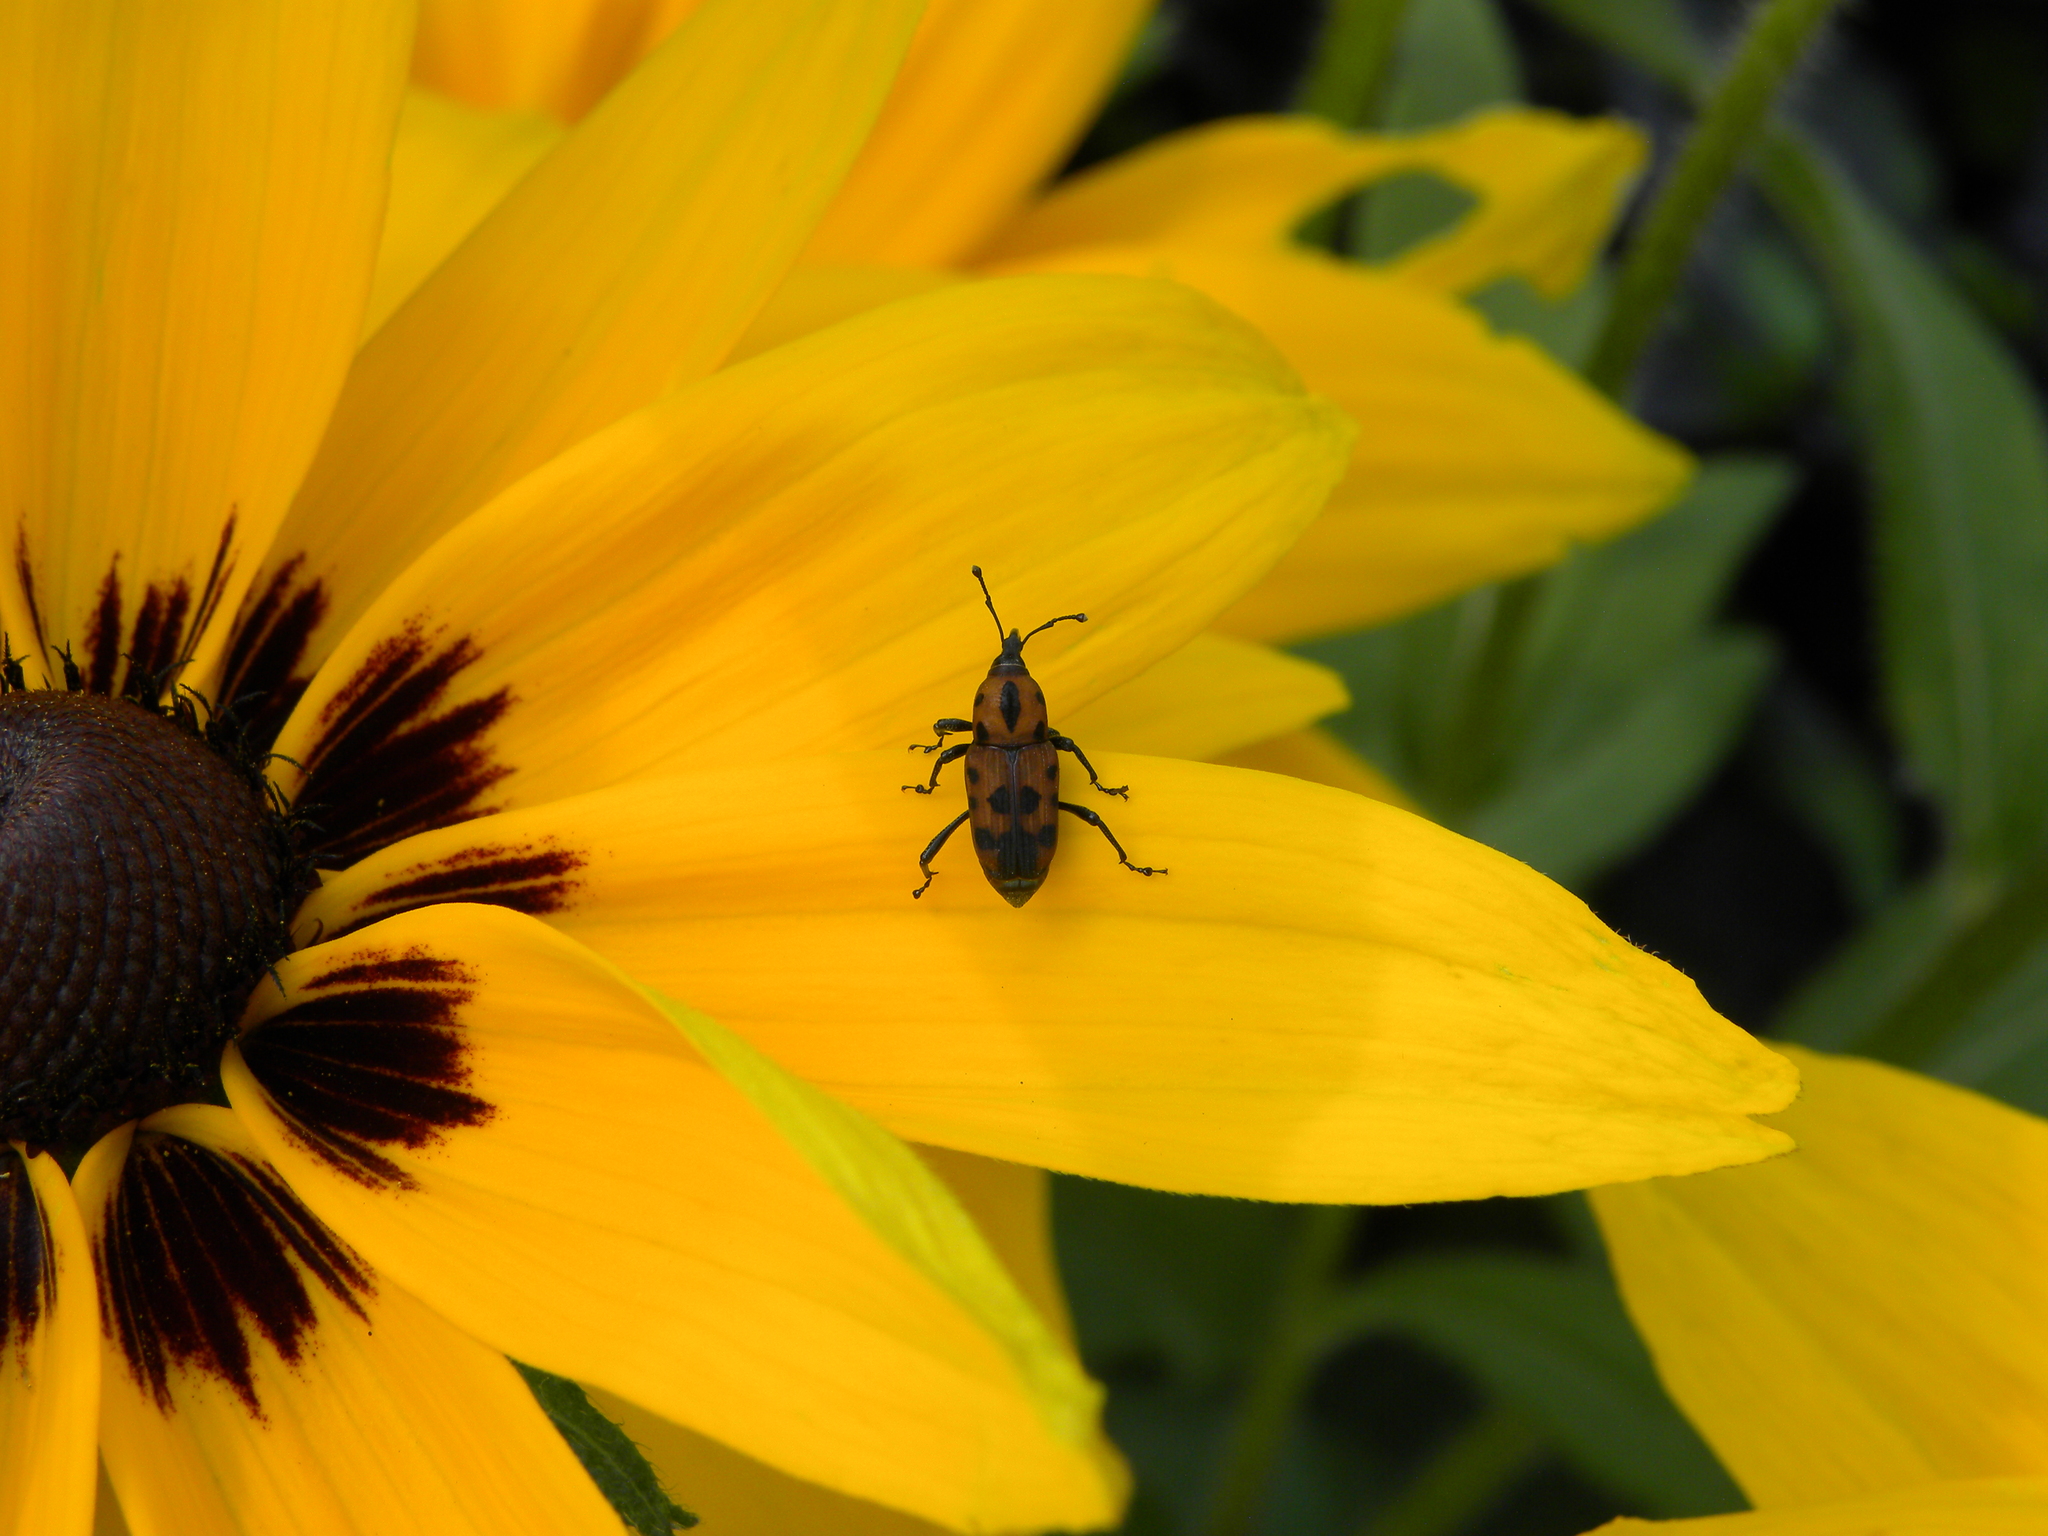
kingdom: Animalia
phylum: Arthropoda
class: Insecta
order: Coleoptera
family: Dryophthoridae
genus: Rhodobaenus
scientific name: Rhodobaenus quinquepunctatus
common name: Cocklebur weevil
